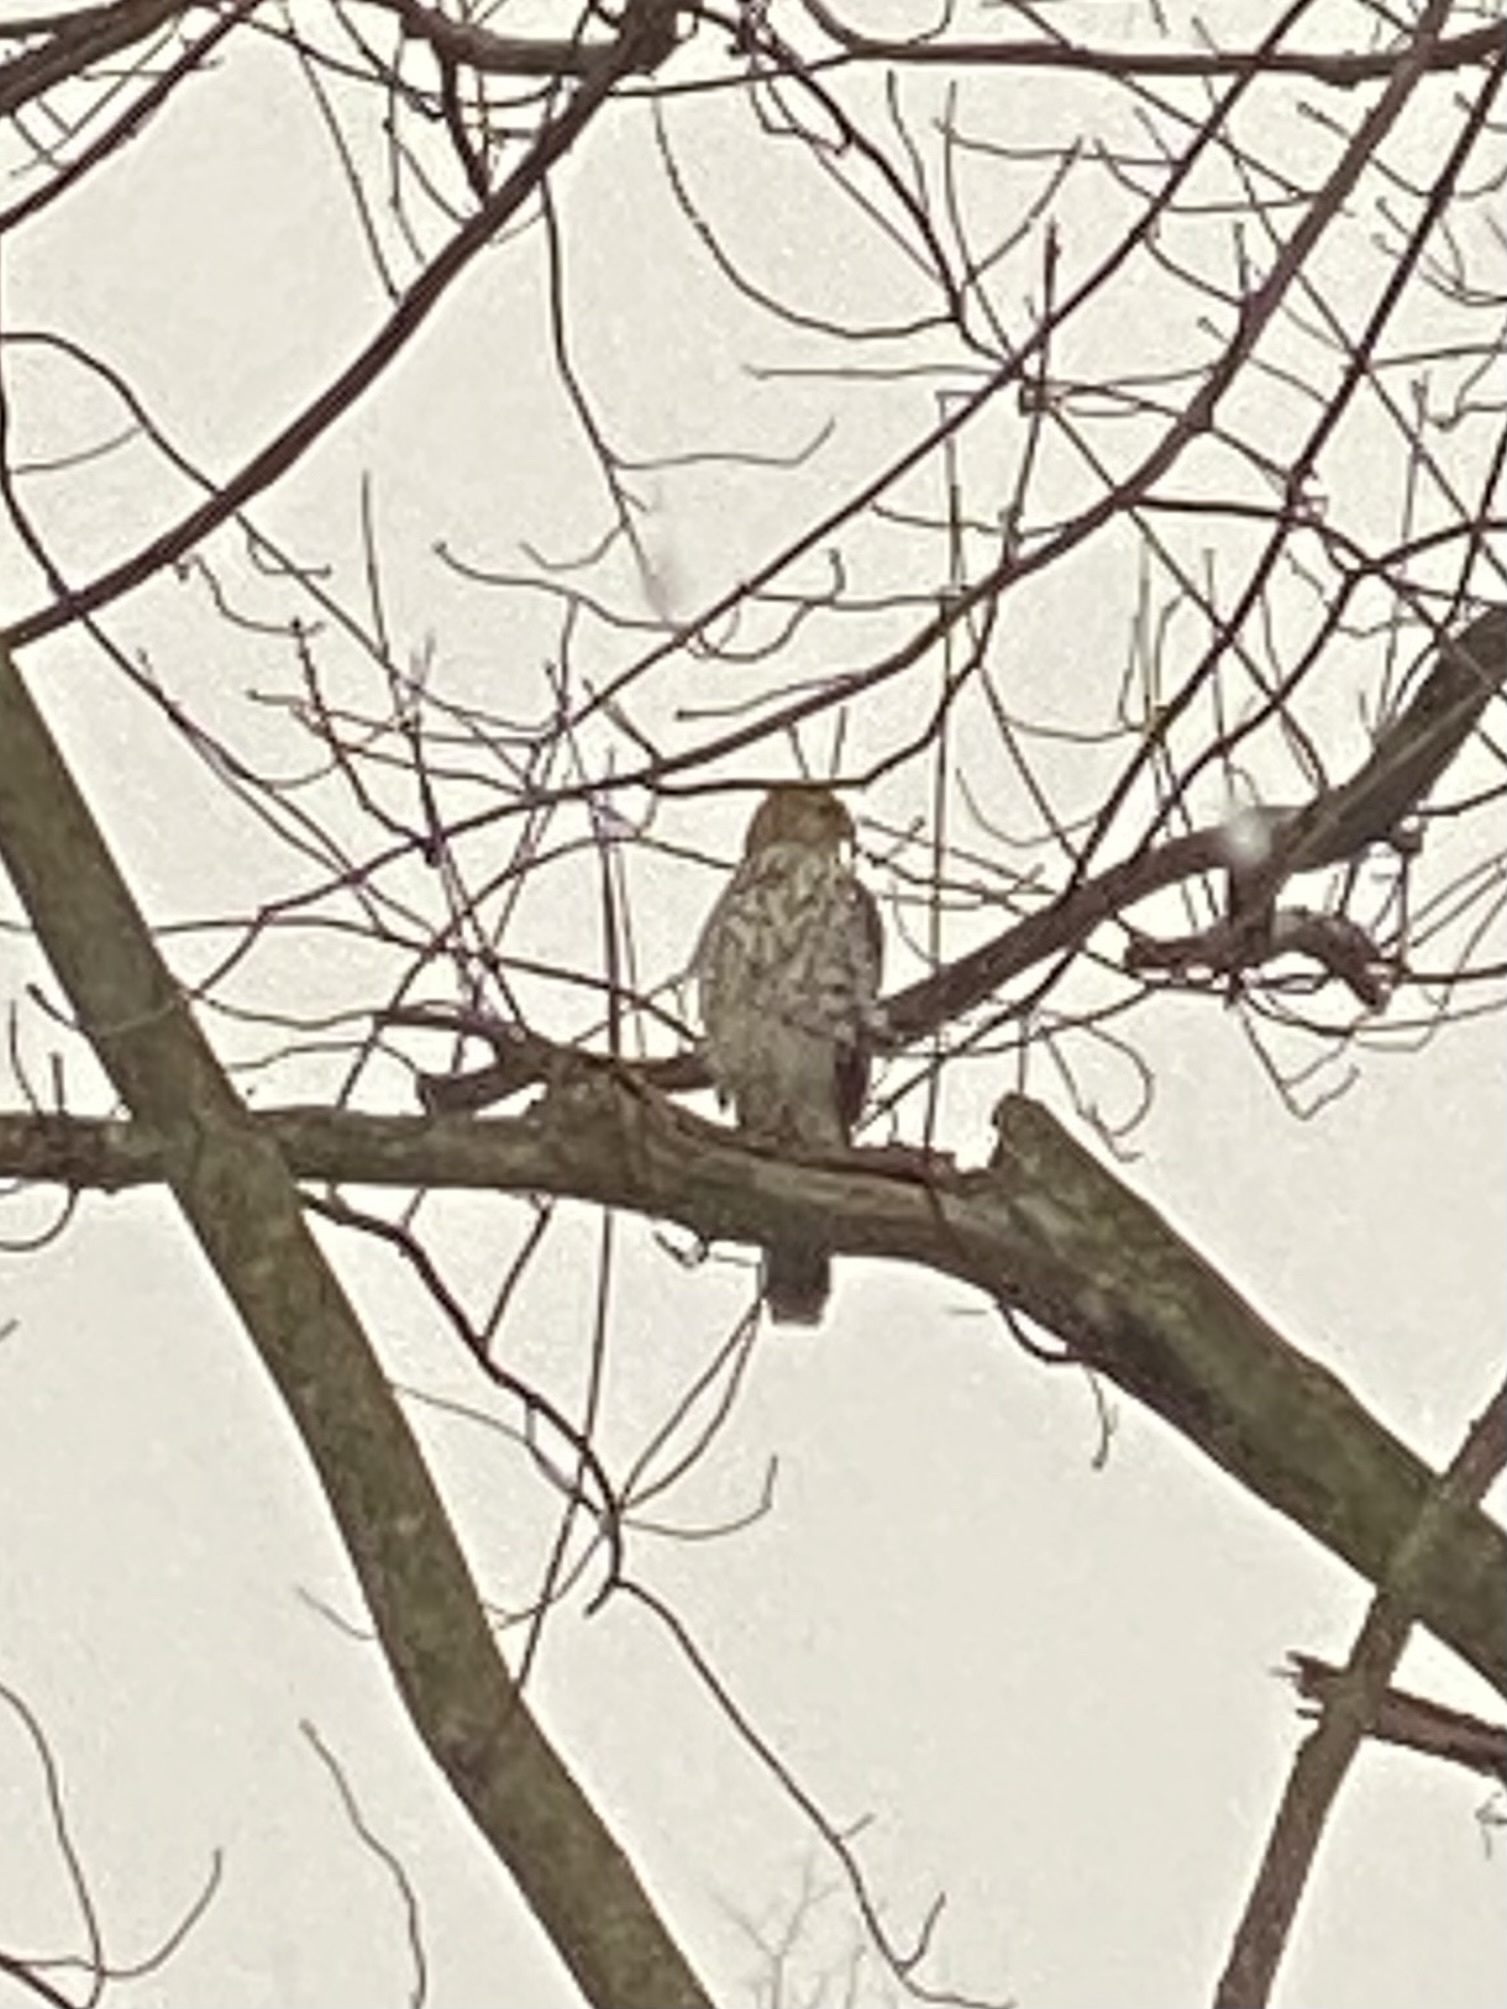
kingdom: Animalia
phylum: Chordata
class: Aves
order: Accipitriformes
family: Accipitridae
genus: Accipiter
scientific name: Accipiter cooperii
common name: Cooper's hawk
